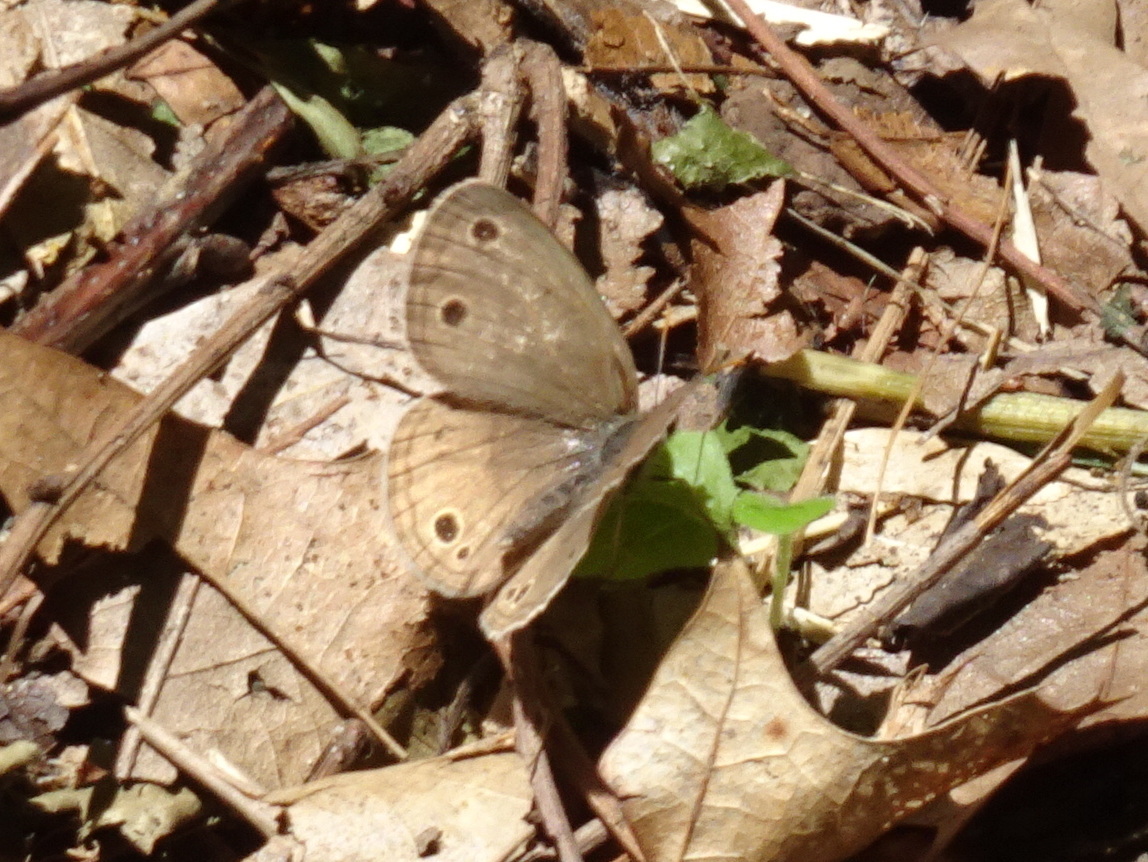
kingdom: Animalia
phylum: Arthropoda
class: Insecta
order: Lepidoptera
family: Nymphalidae
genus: Euptychia
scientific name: Euptychia cymela
